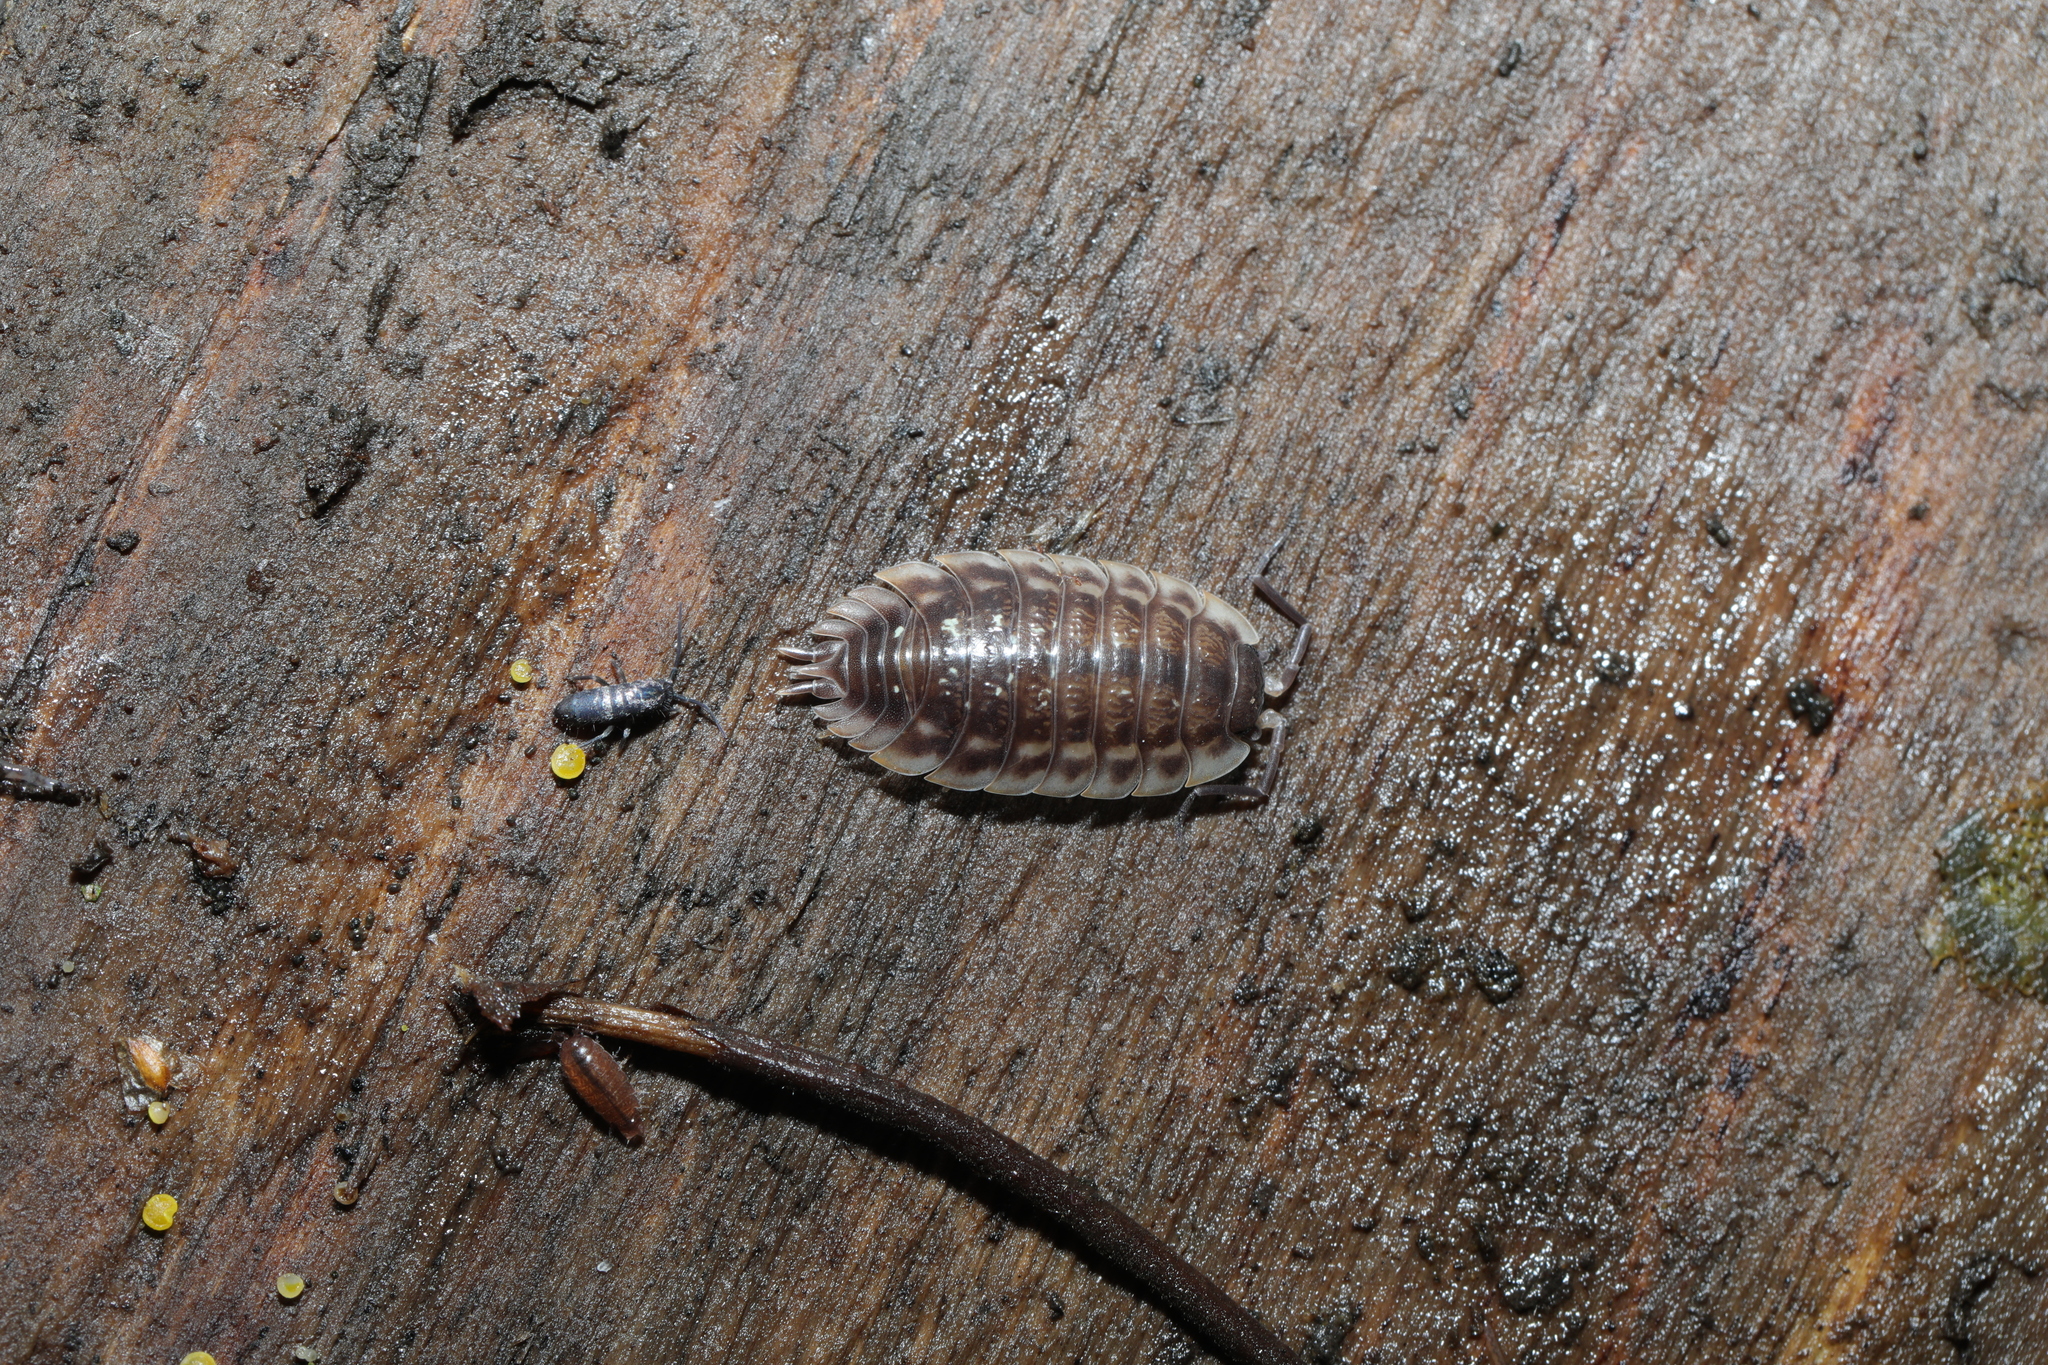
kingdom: Animalia
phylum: Arthropoda
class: Malacostraca
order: Isopoda
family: Trichoniscidae
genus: Trichoniscus
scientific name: Trichoniscus
